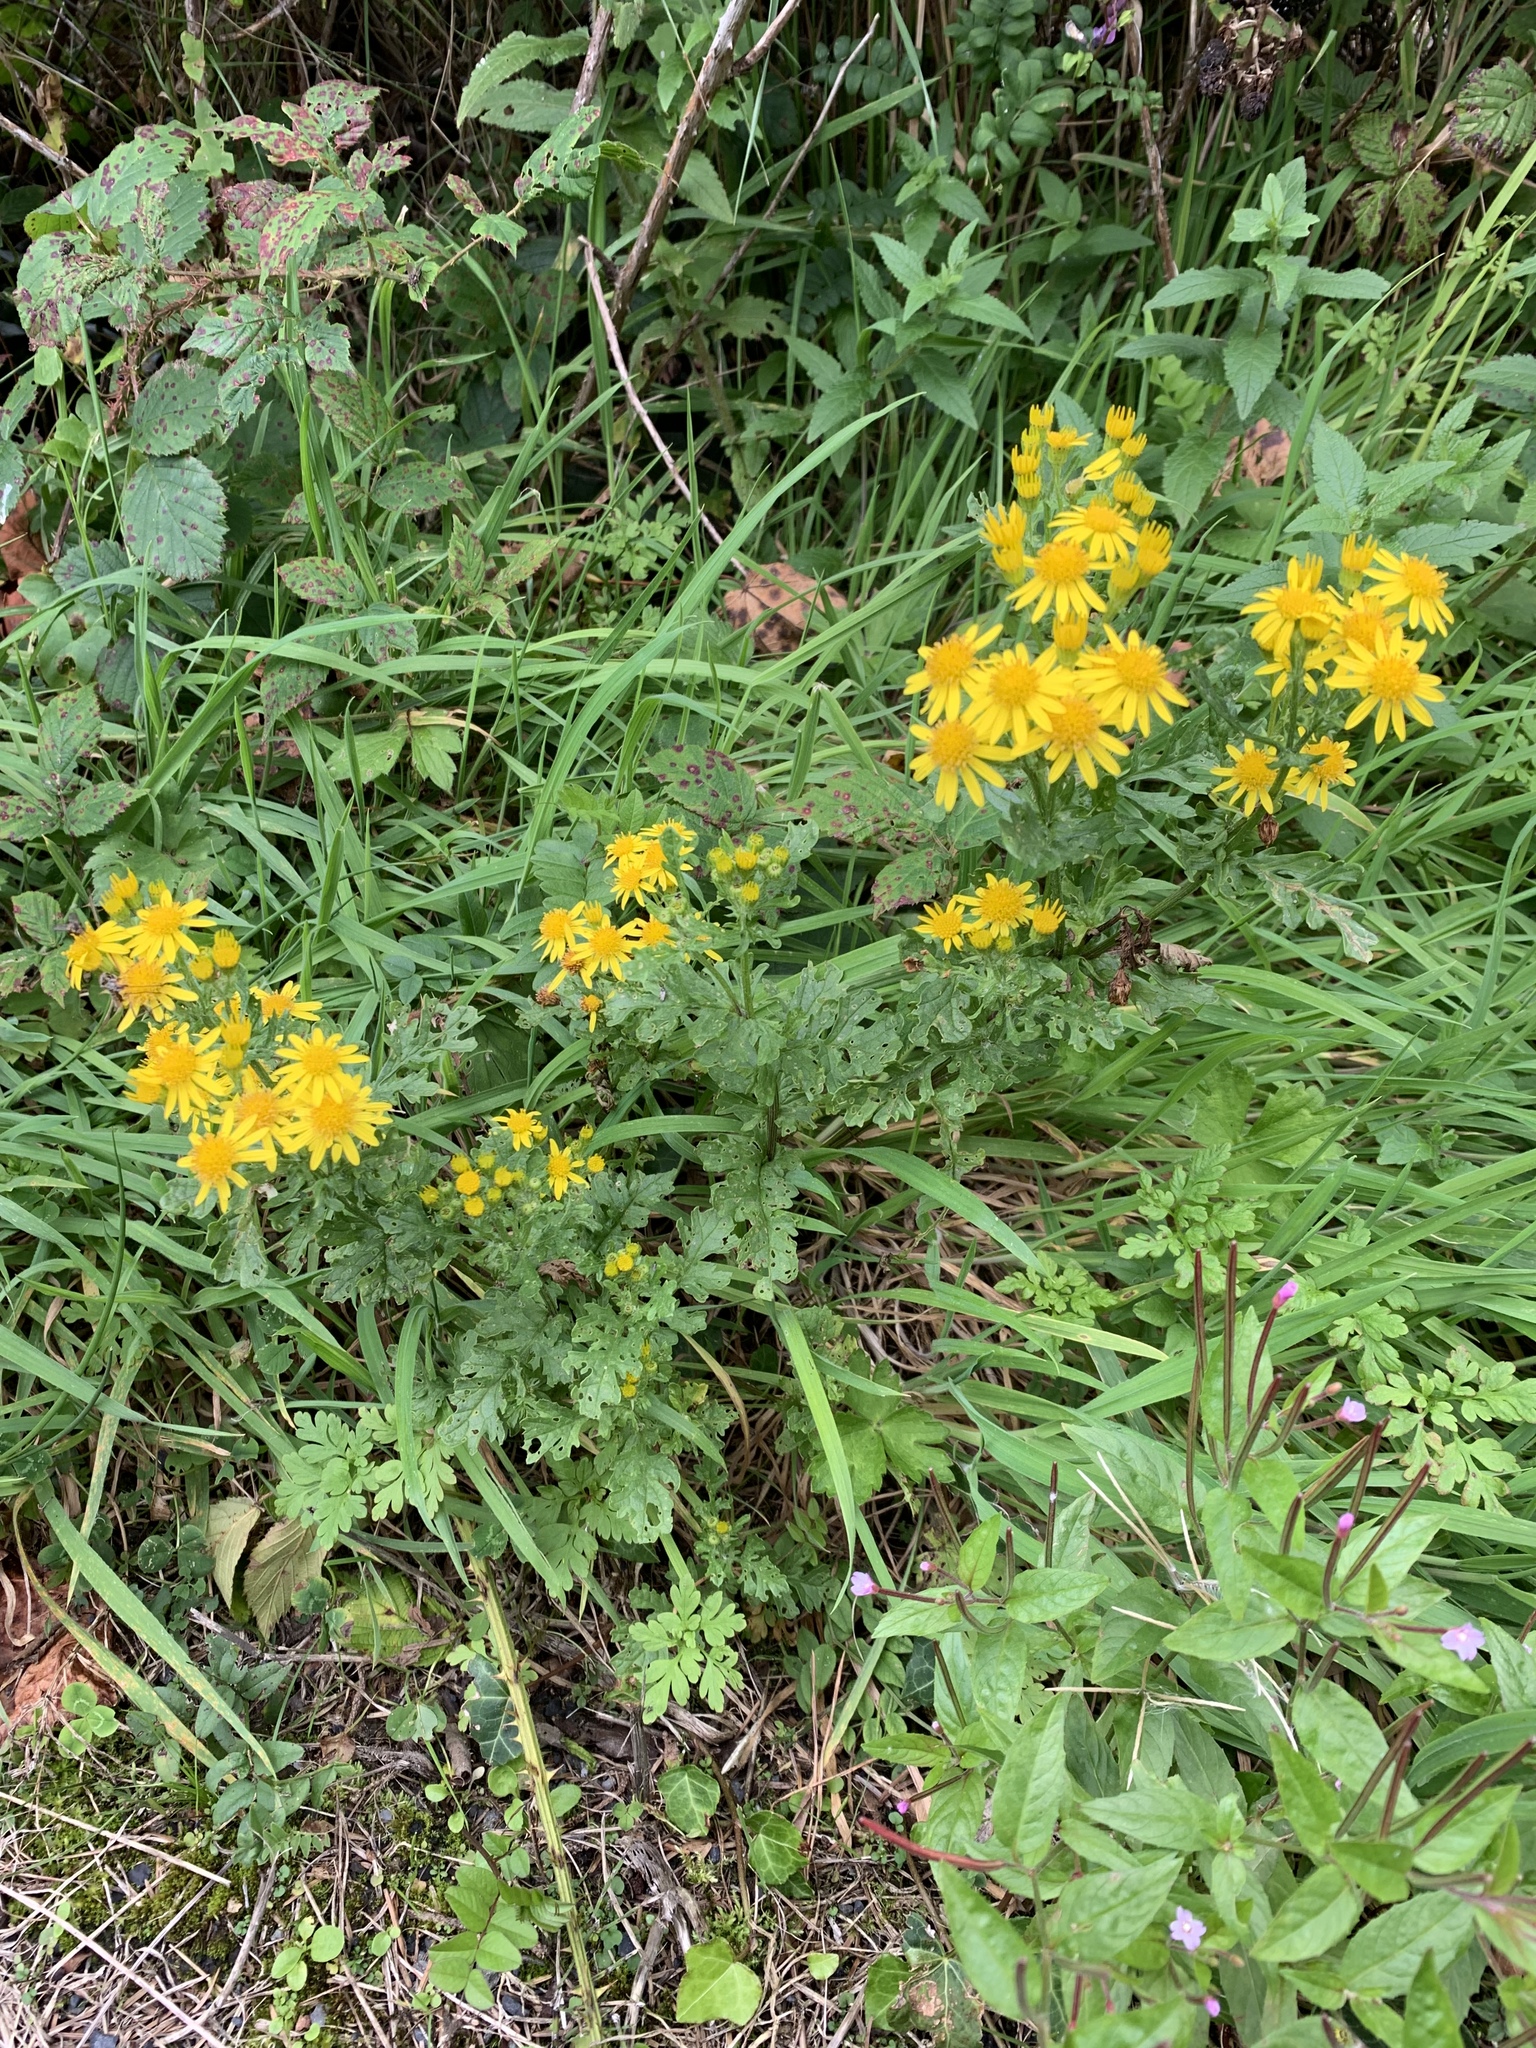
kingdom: Plantae
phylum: Tracheophyta
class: Magnoliopsida
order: Asterales
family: Asteraceae
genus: Jacobaea
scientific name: Jacobaea vulgaris
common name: Stinking willie
